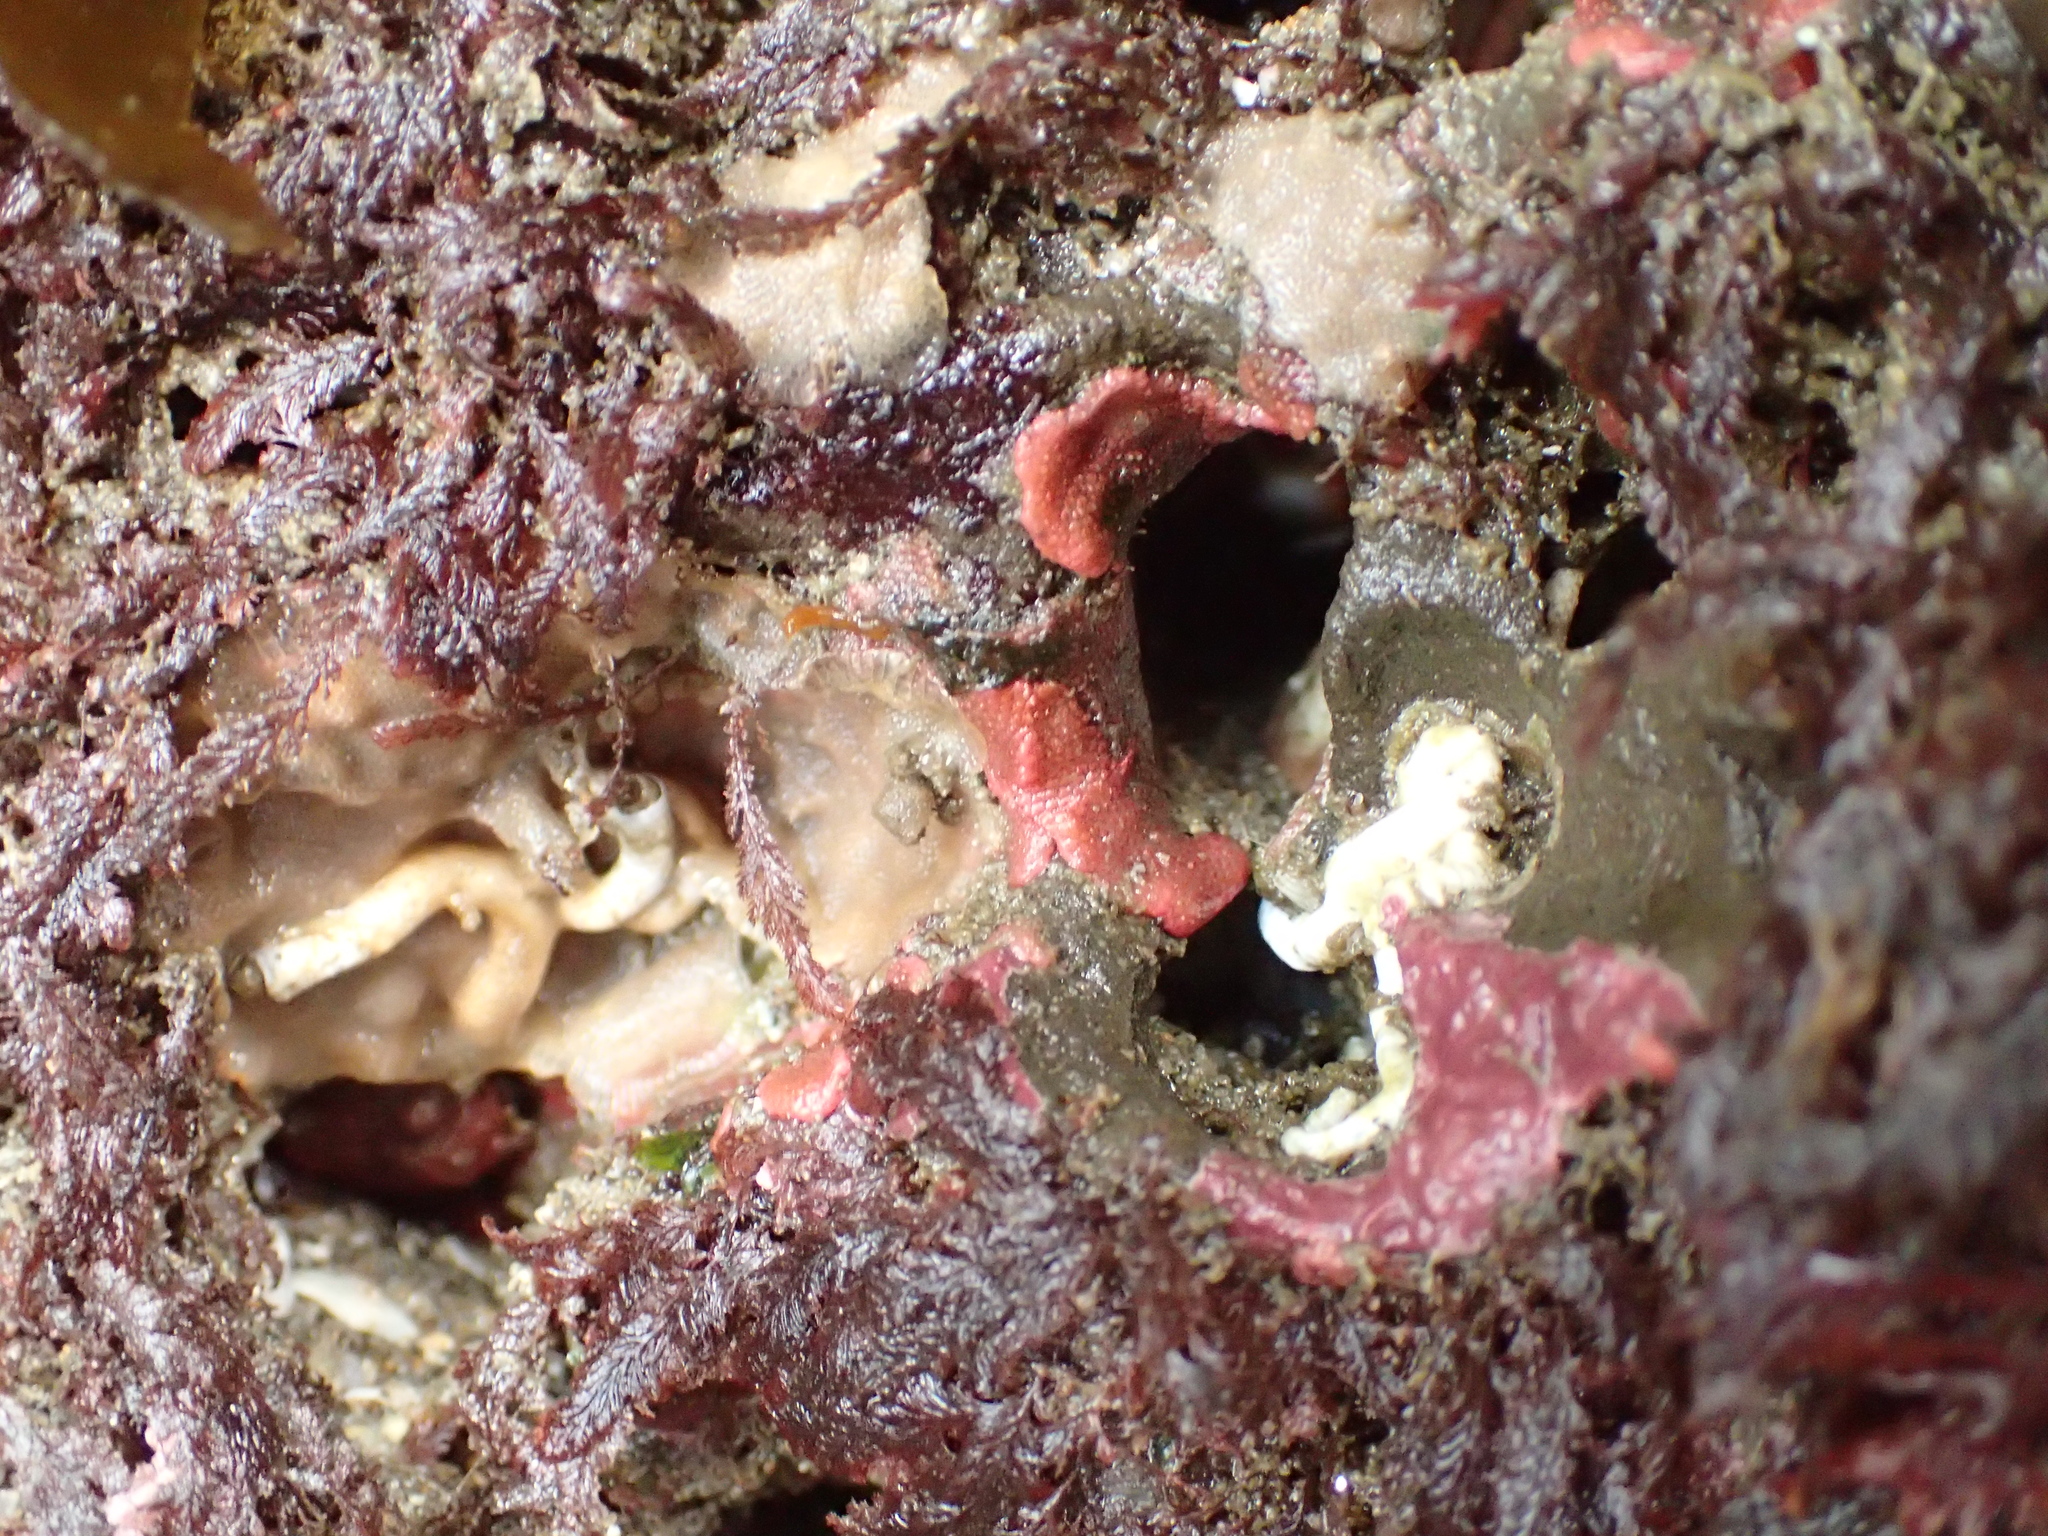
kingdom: Animalia
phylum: Bryozoa
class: Gymnolaemata
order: Cheilostomatida
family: Eurystomellidae
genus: Integripelta
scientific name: Integripelta bilabiata
